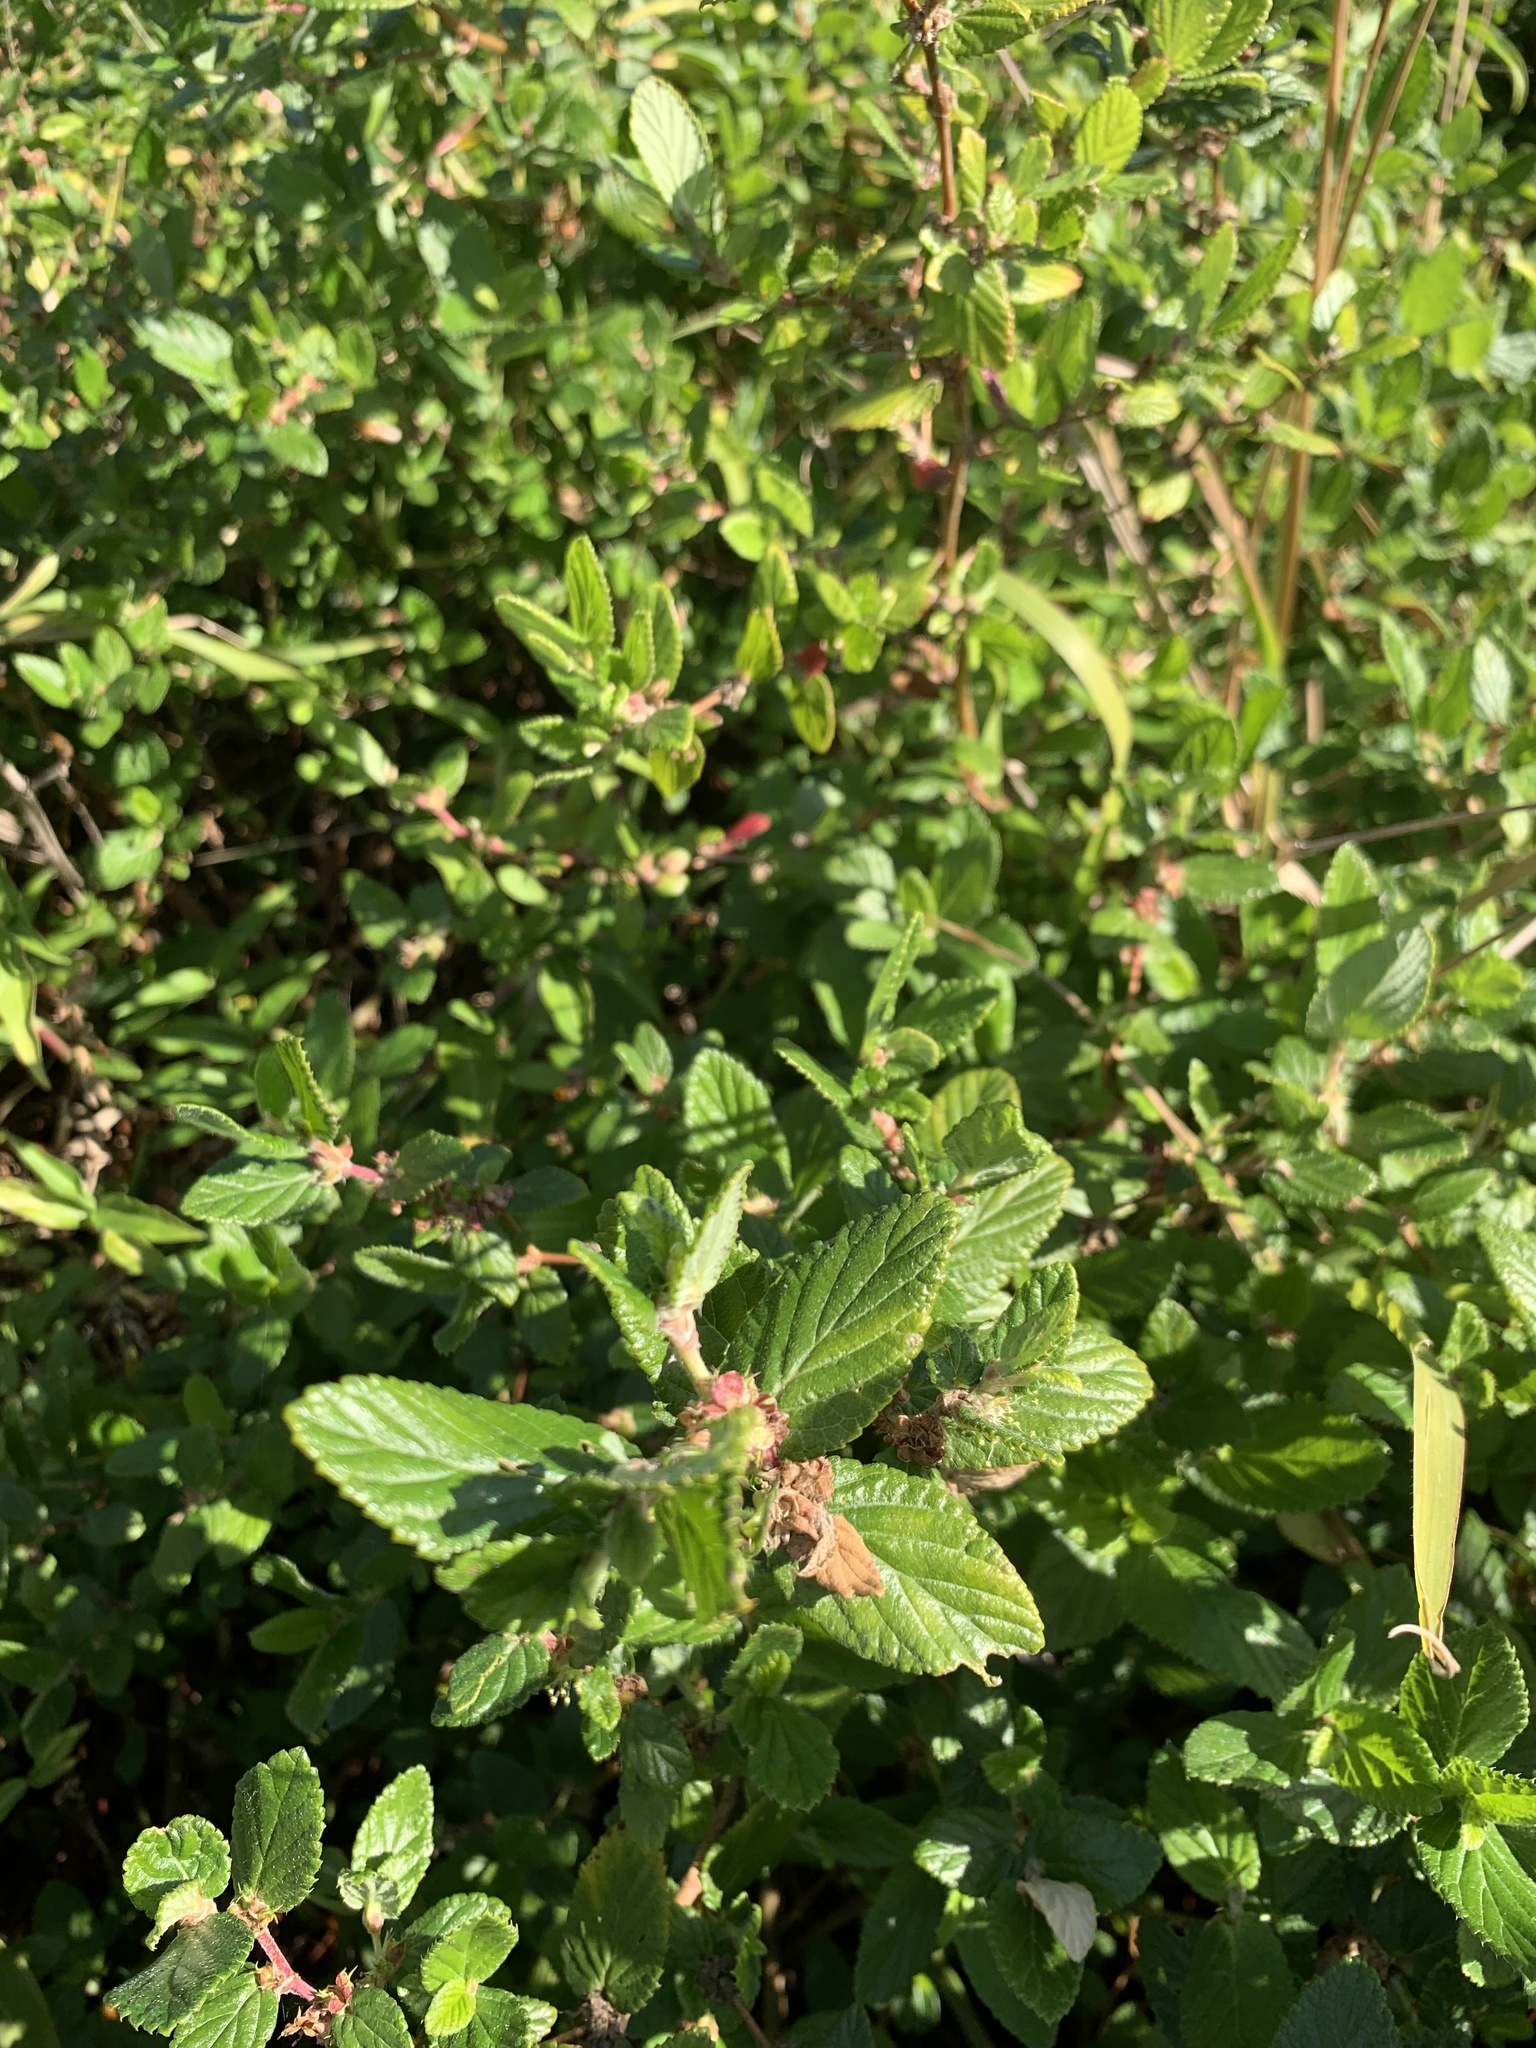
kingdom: Plantae
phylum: Tracheophyta
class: Magnoliopsida
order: Rosales
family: Rosaceae
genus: Cliffortia
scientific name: Cliffortia odorata
